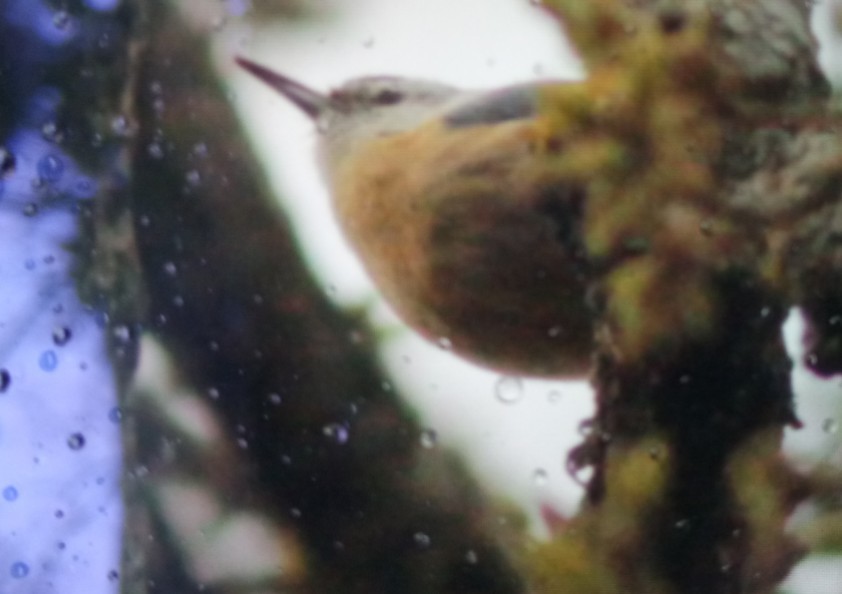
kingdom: Animalia
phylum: Chordata
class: Aves
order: Passeriformes
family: Sittidae
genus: Sitta
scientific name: Sitta ledanti
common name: Algerian nuthatch
